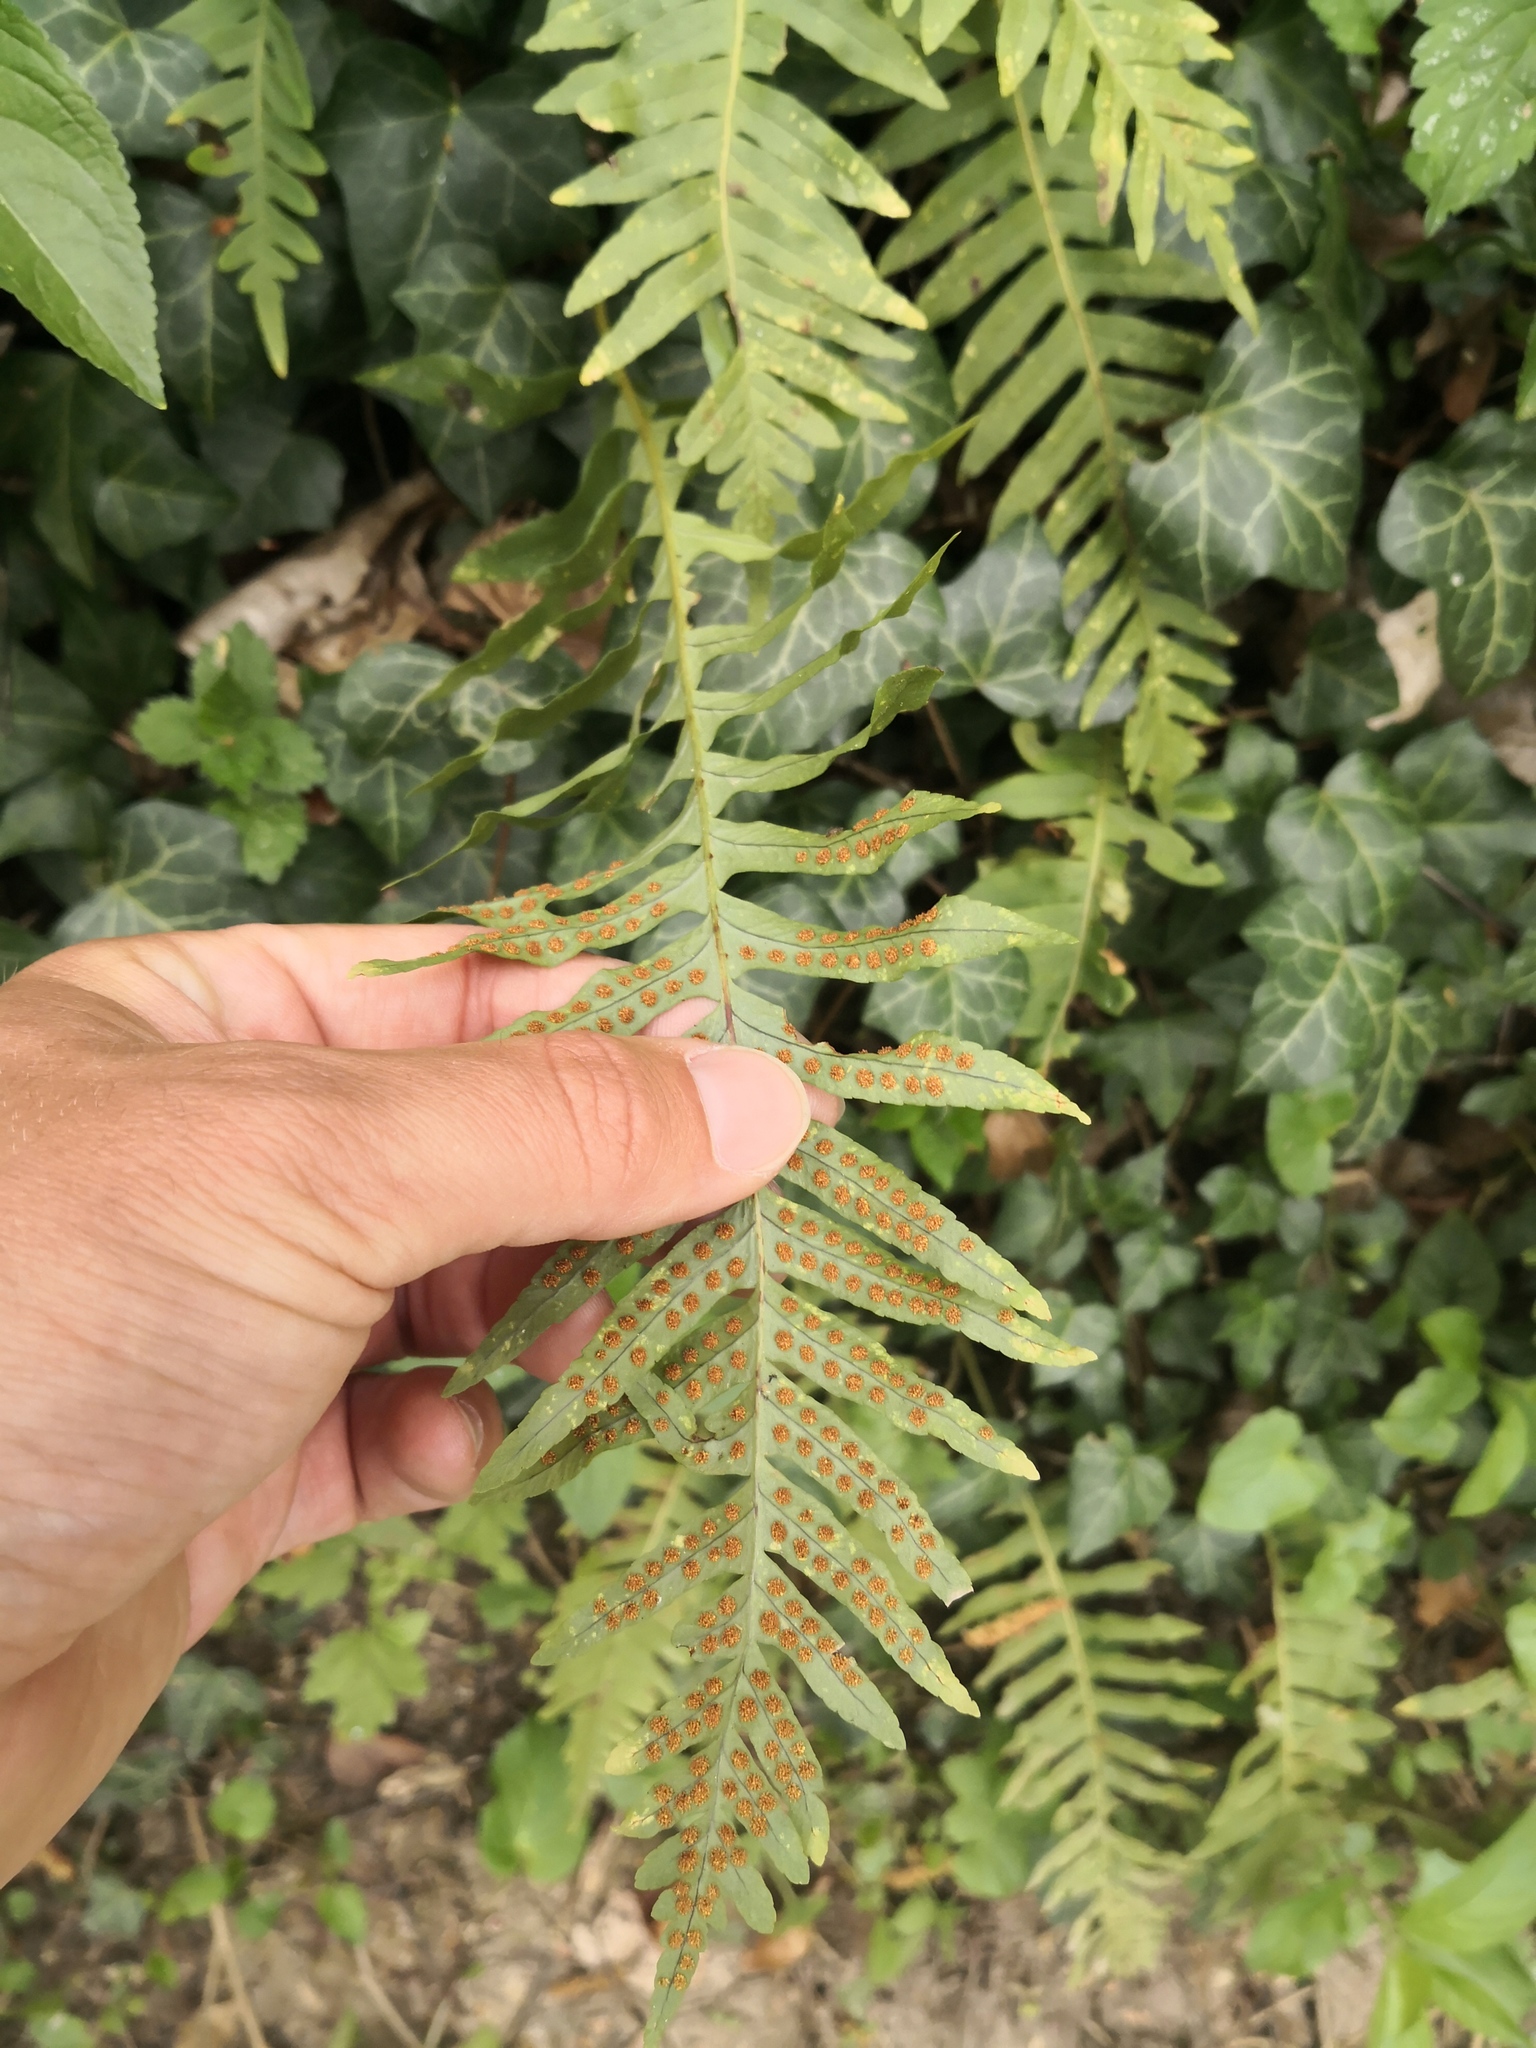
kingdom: Plantae
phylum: Tracheophyta
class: Polypodiopsida
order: Polypodiales
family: Polypodiaceae
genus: Polypodium
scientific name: Polypodium vulgare
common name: Common polypody
